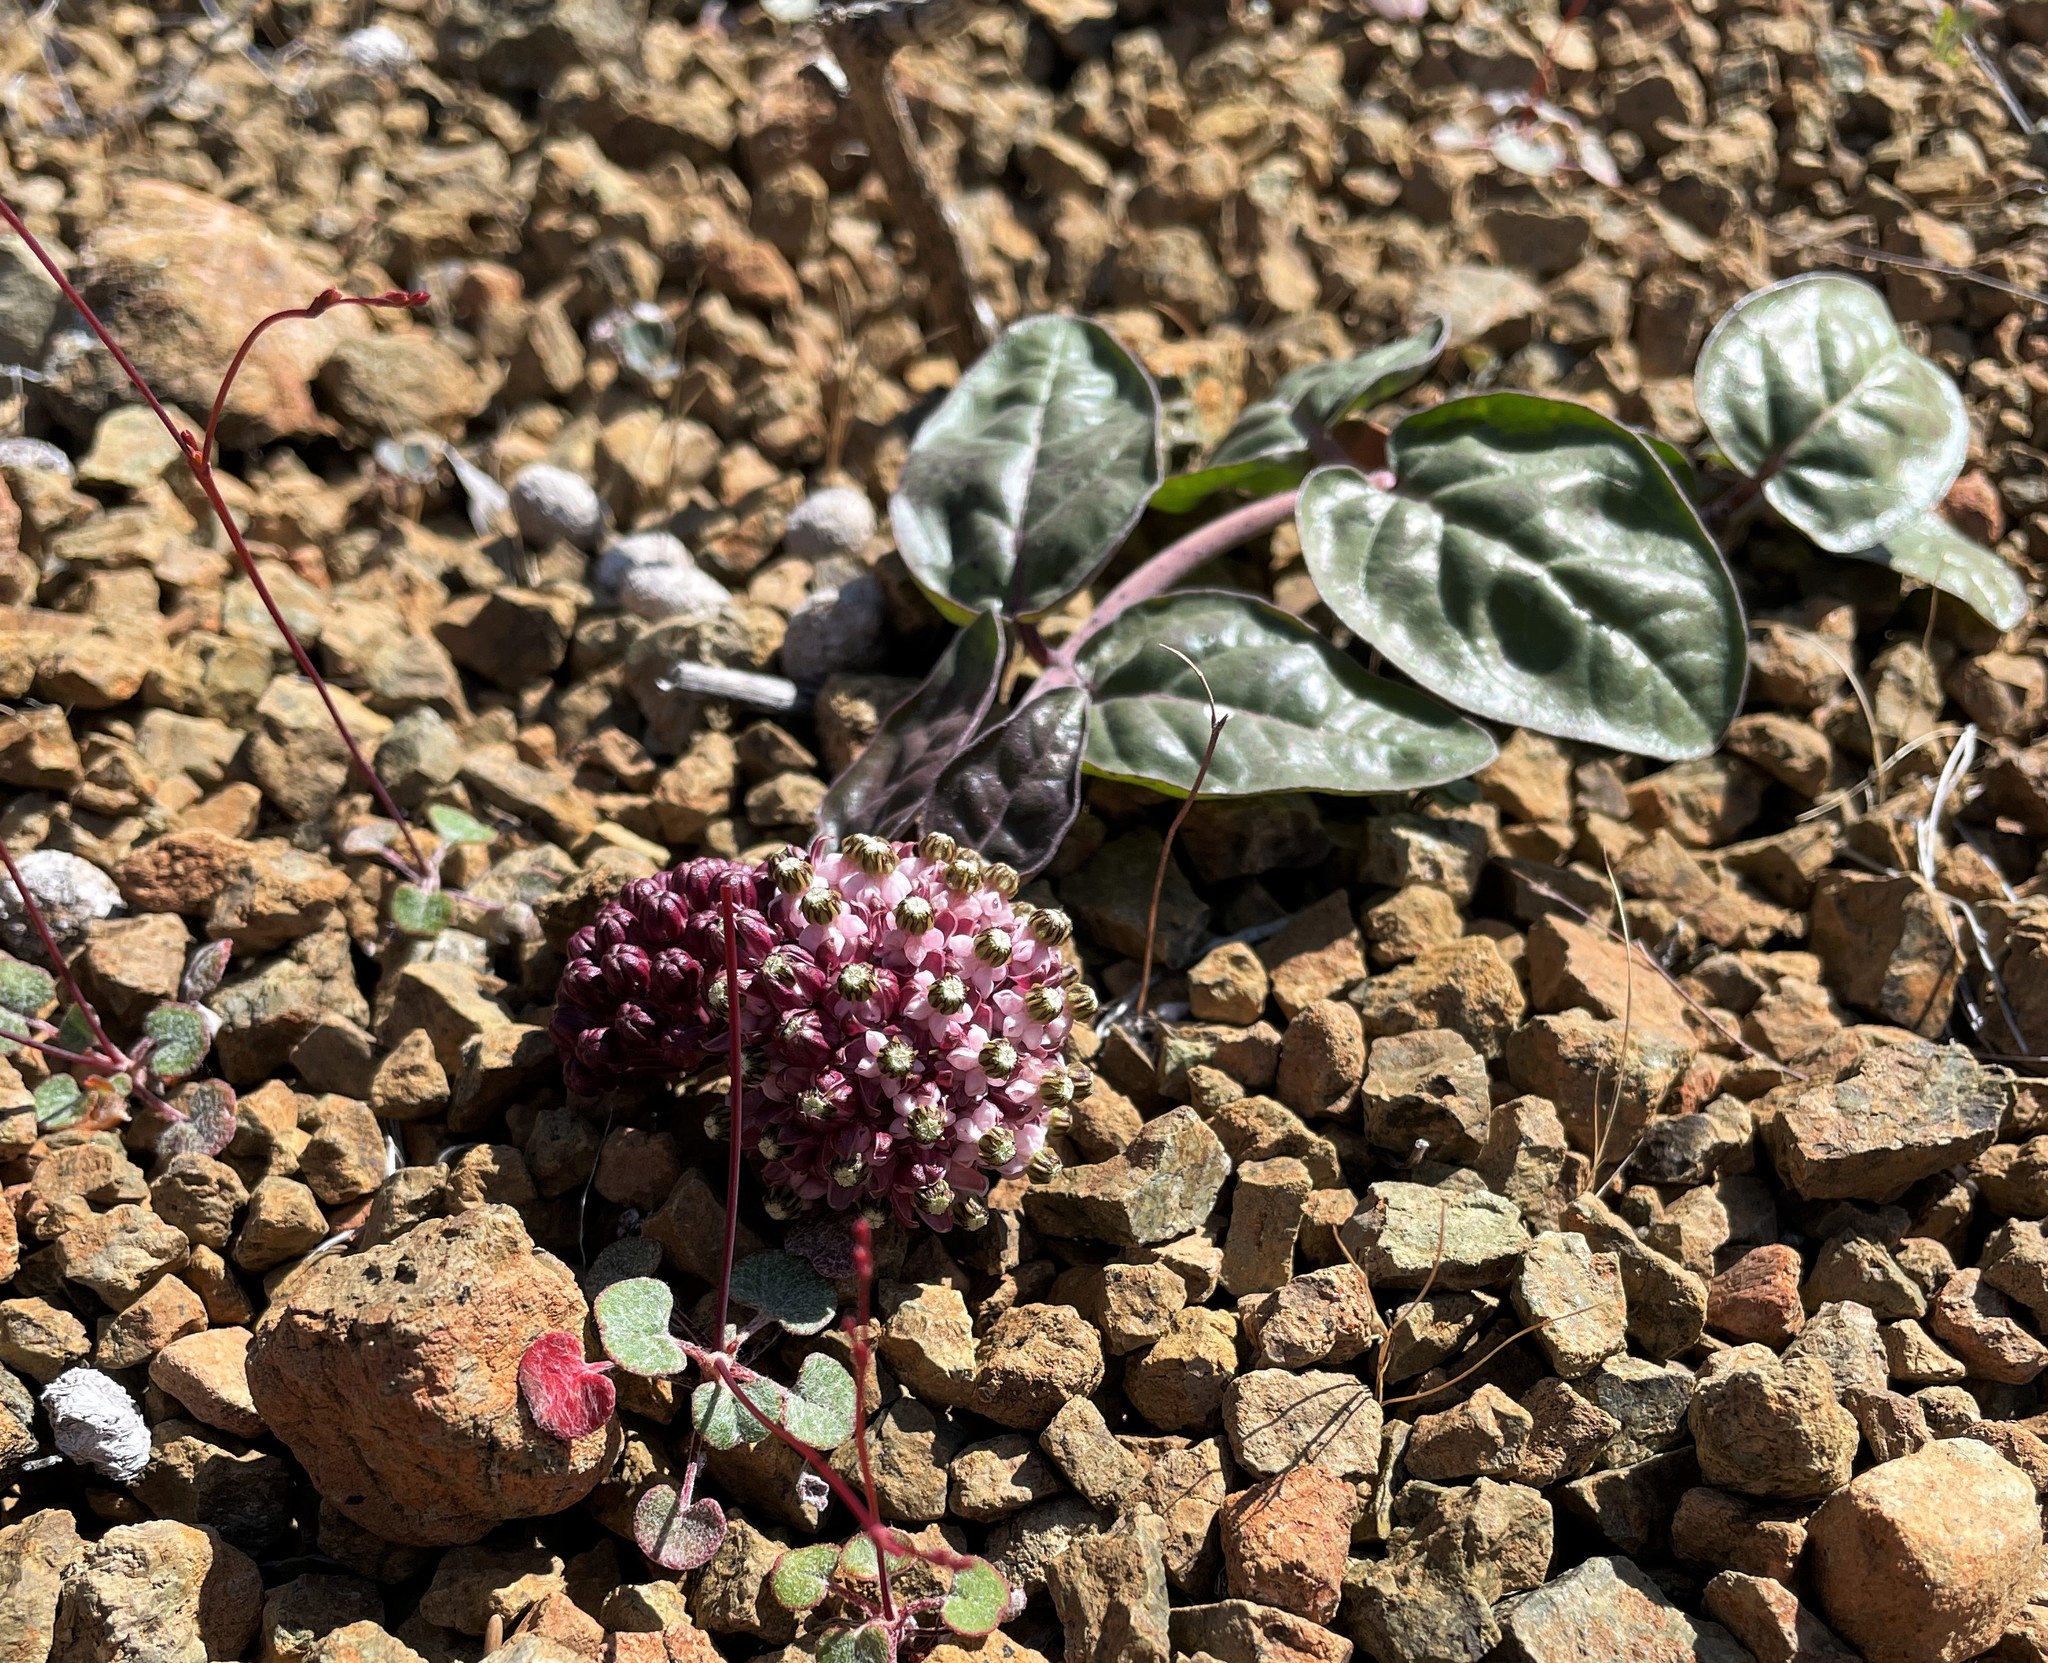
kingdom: Plantae
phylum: Tracheophyta
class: Magnoliopsida
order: Gentianales
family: Apocynaceae
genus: Asclepias
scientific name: Asclepias solanoana
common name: Serpentine milkweed
